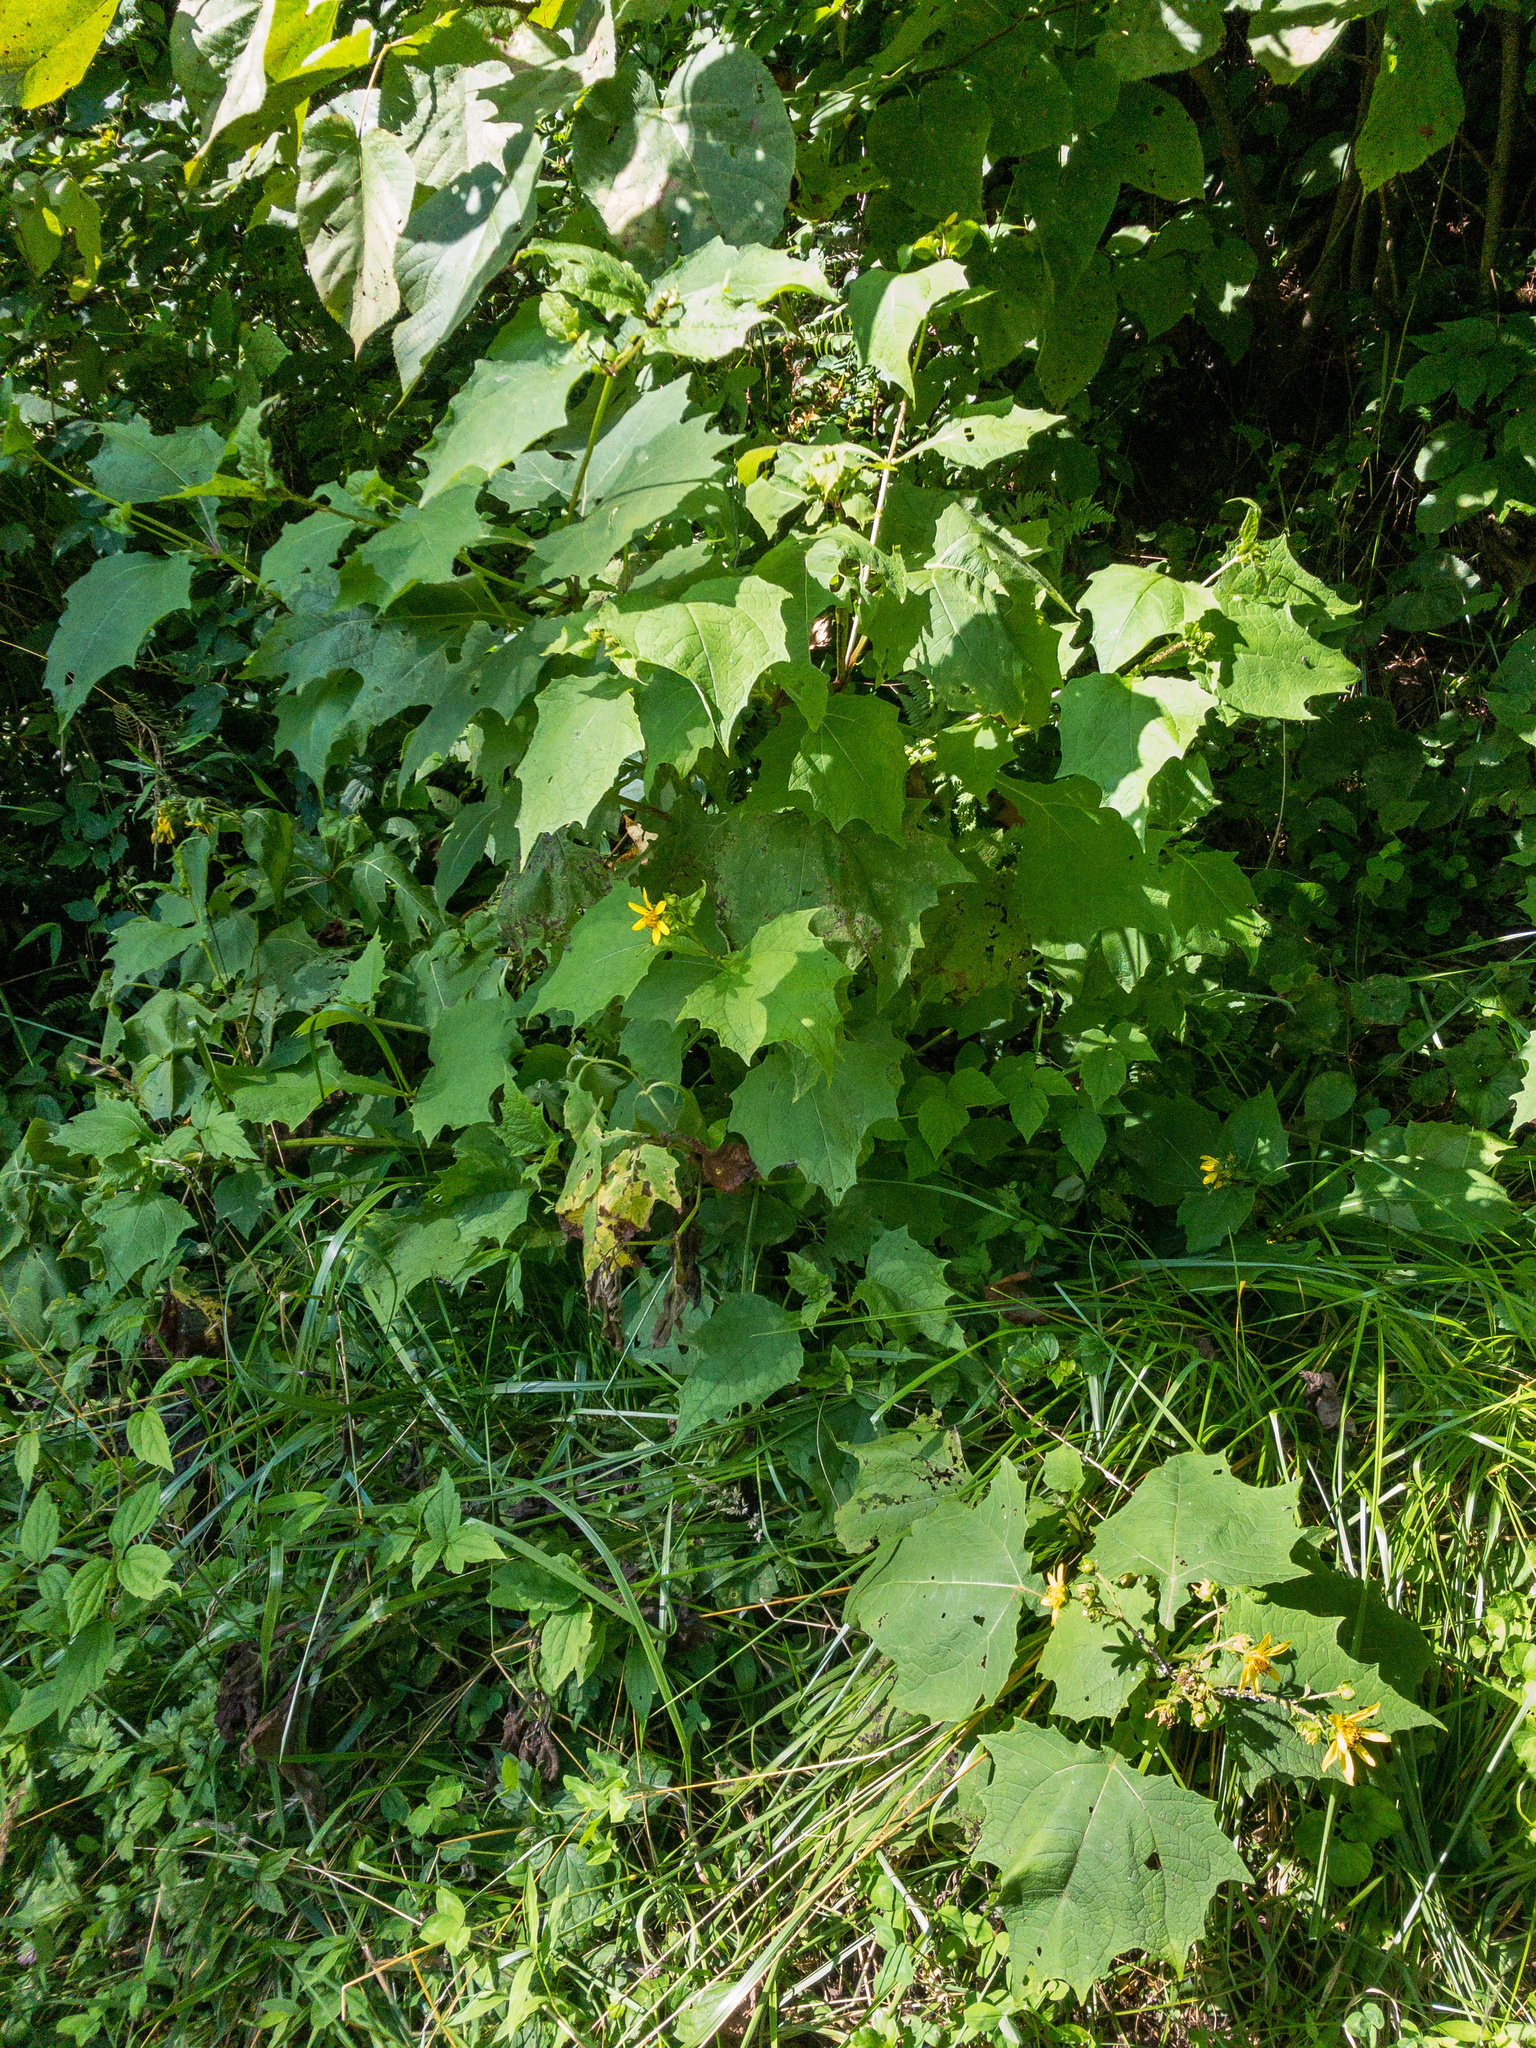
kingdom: Plantae
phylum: Tracheophyta
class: Magnoliopsida
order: Asterales
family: Asteraceae
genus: Smallanthus
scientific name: Smallanthus uvedalia
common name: Bear's-foot
